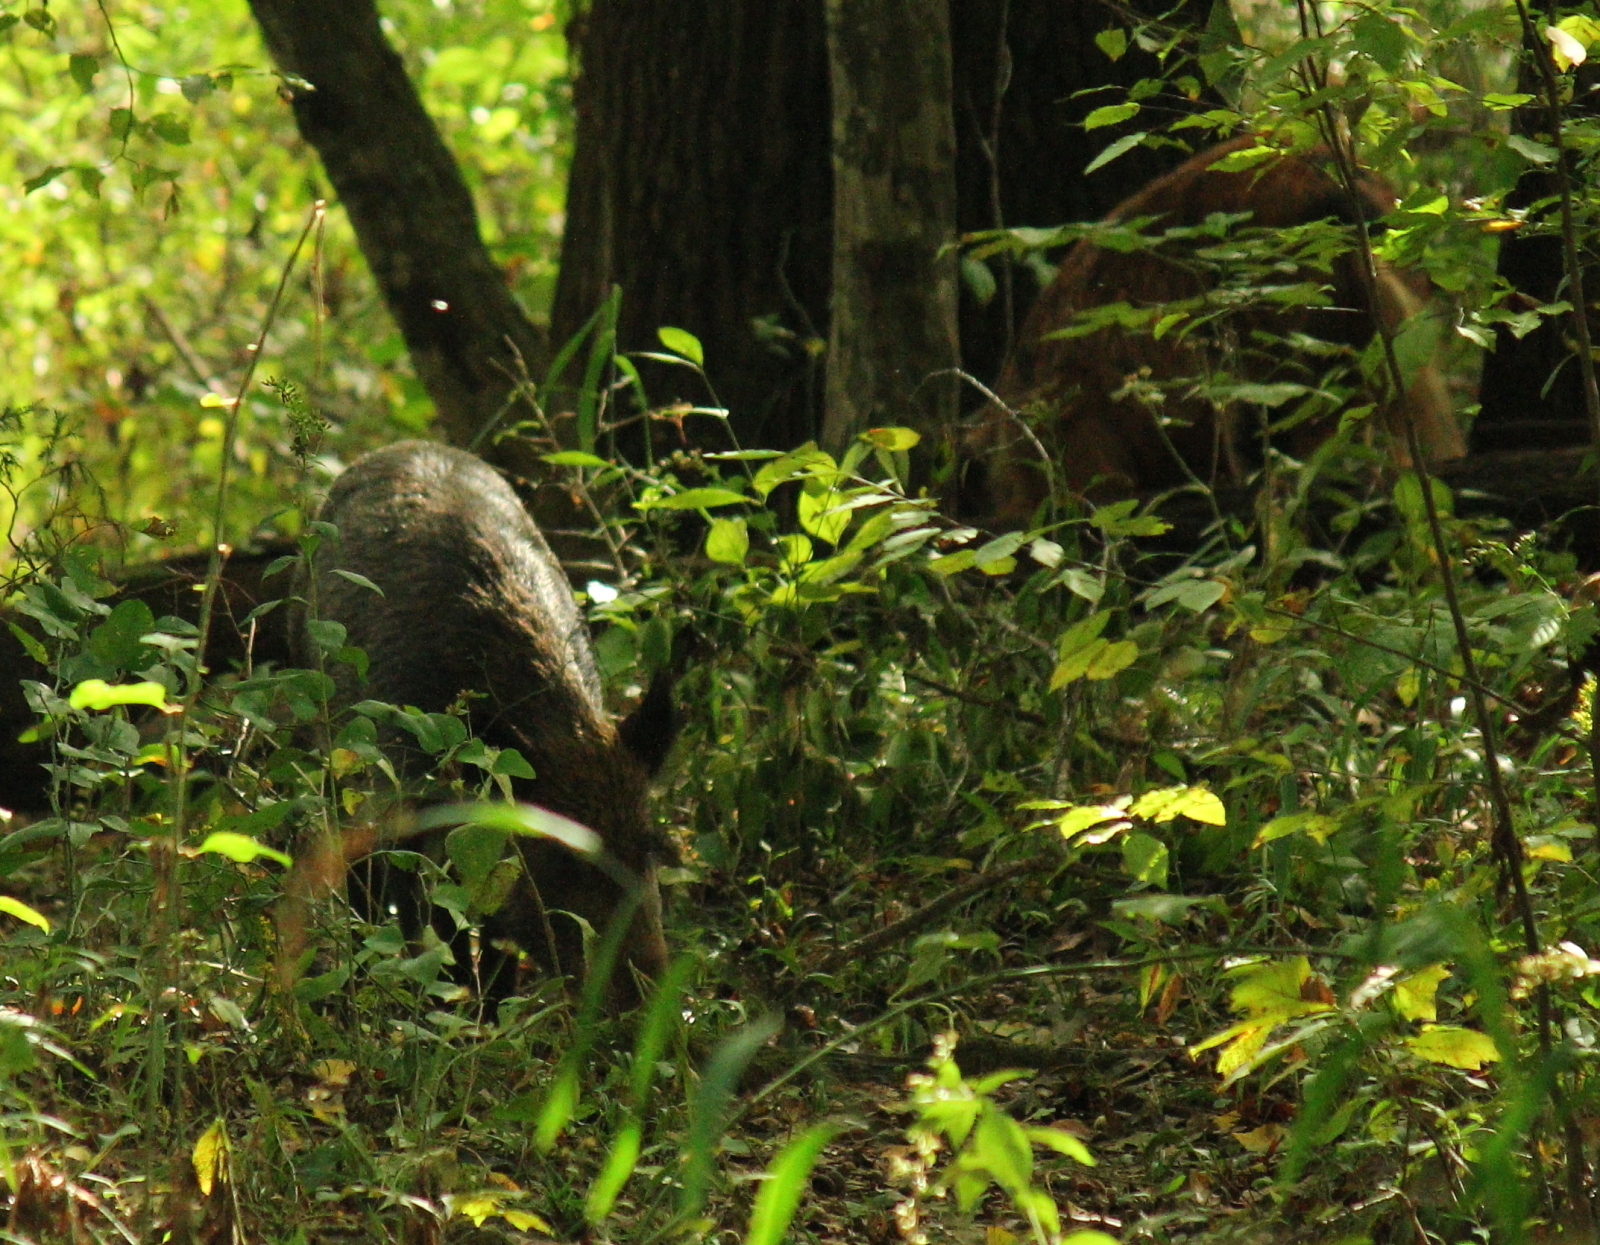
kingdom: Animalia
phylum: Chordata
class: Mammalia
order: Artiodactyla
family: Suidae
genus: Sus
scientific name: Sus scrofa
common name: Wild boar
